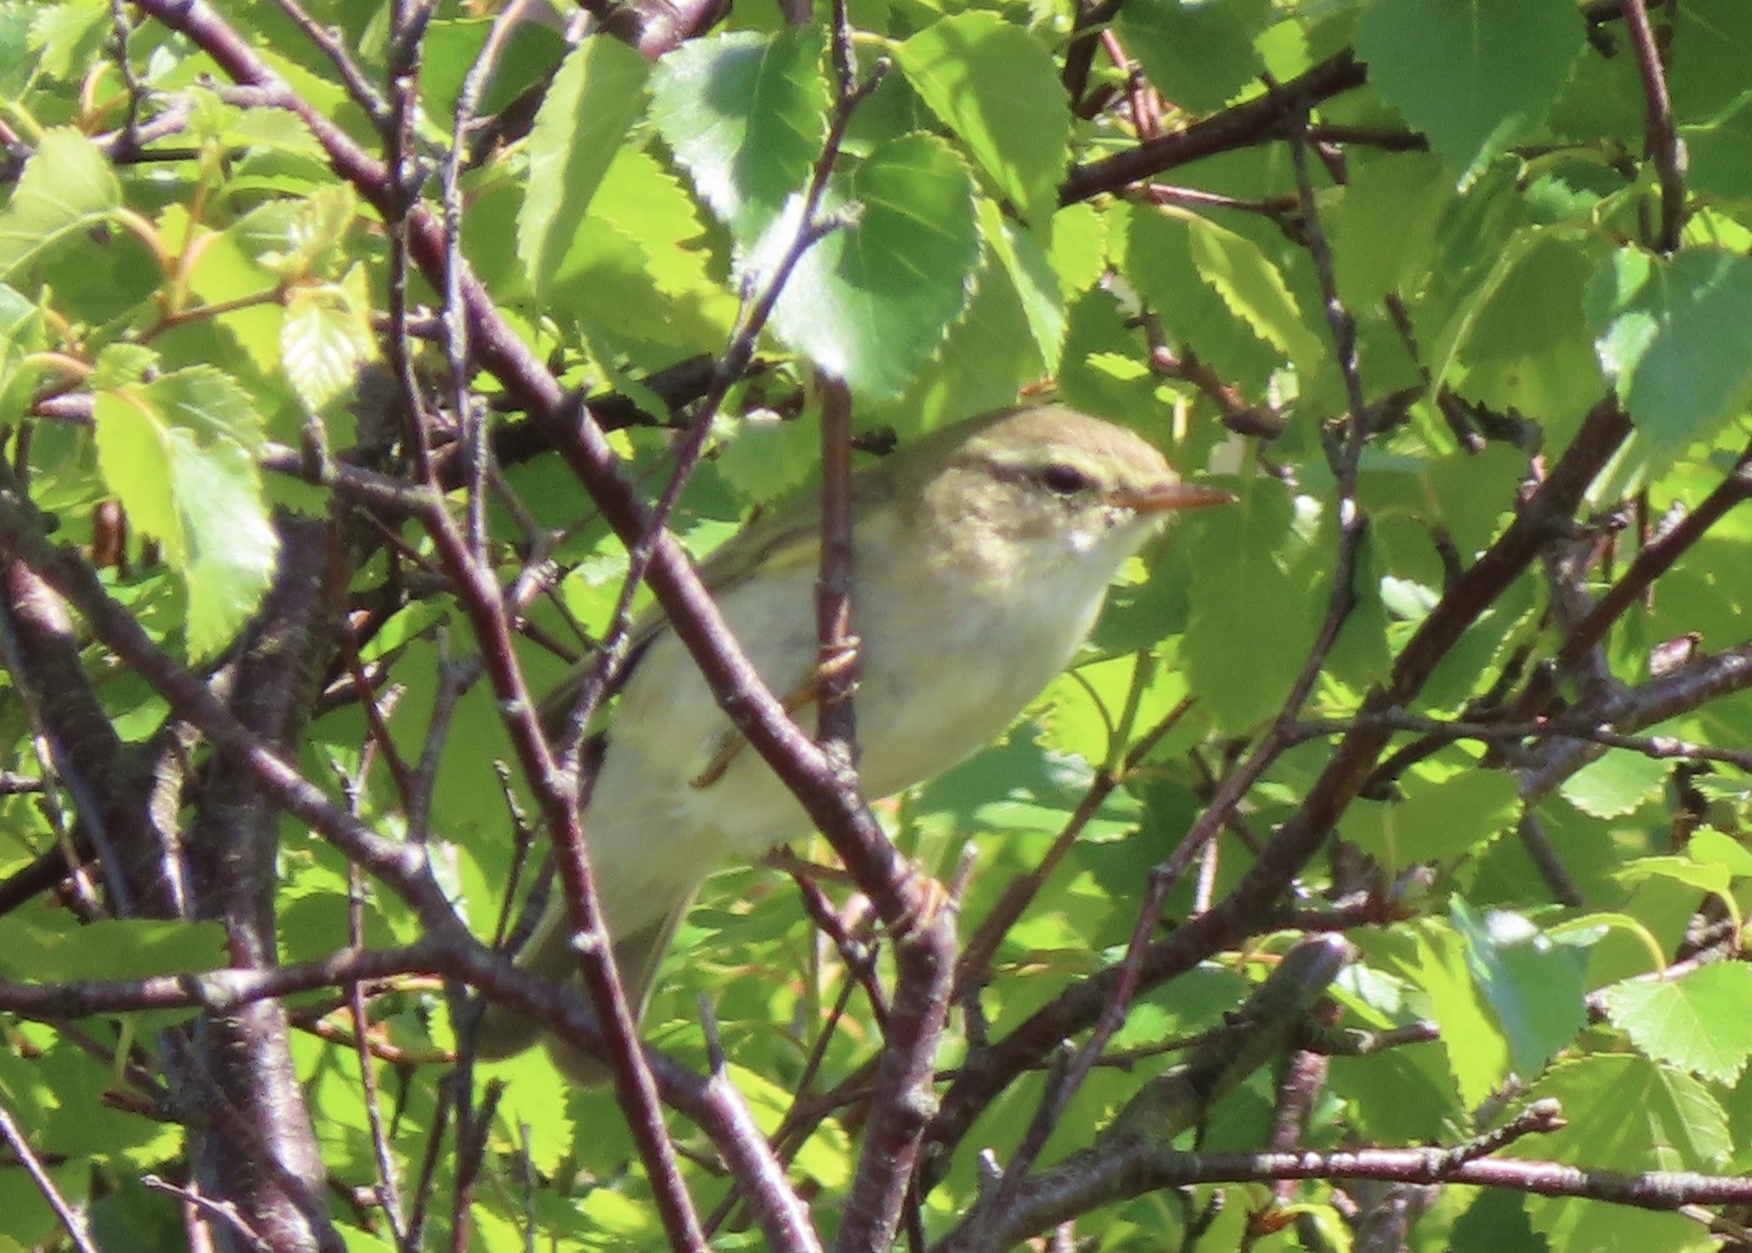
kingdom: Animalia
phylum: Chordata
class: Aves
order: Passeriformes
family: Phylloscopidae
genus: Phylloscopus
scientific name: Phylloscopus trochilus
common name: Willow warbler
